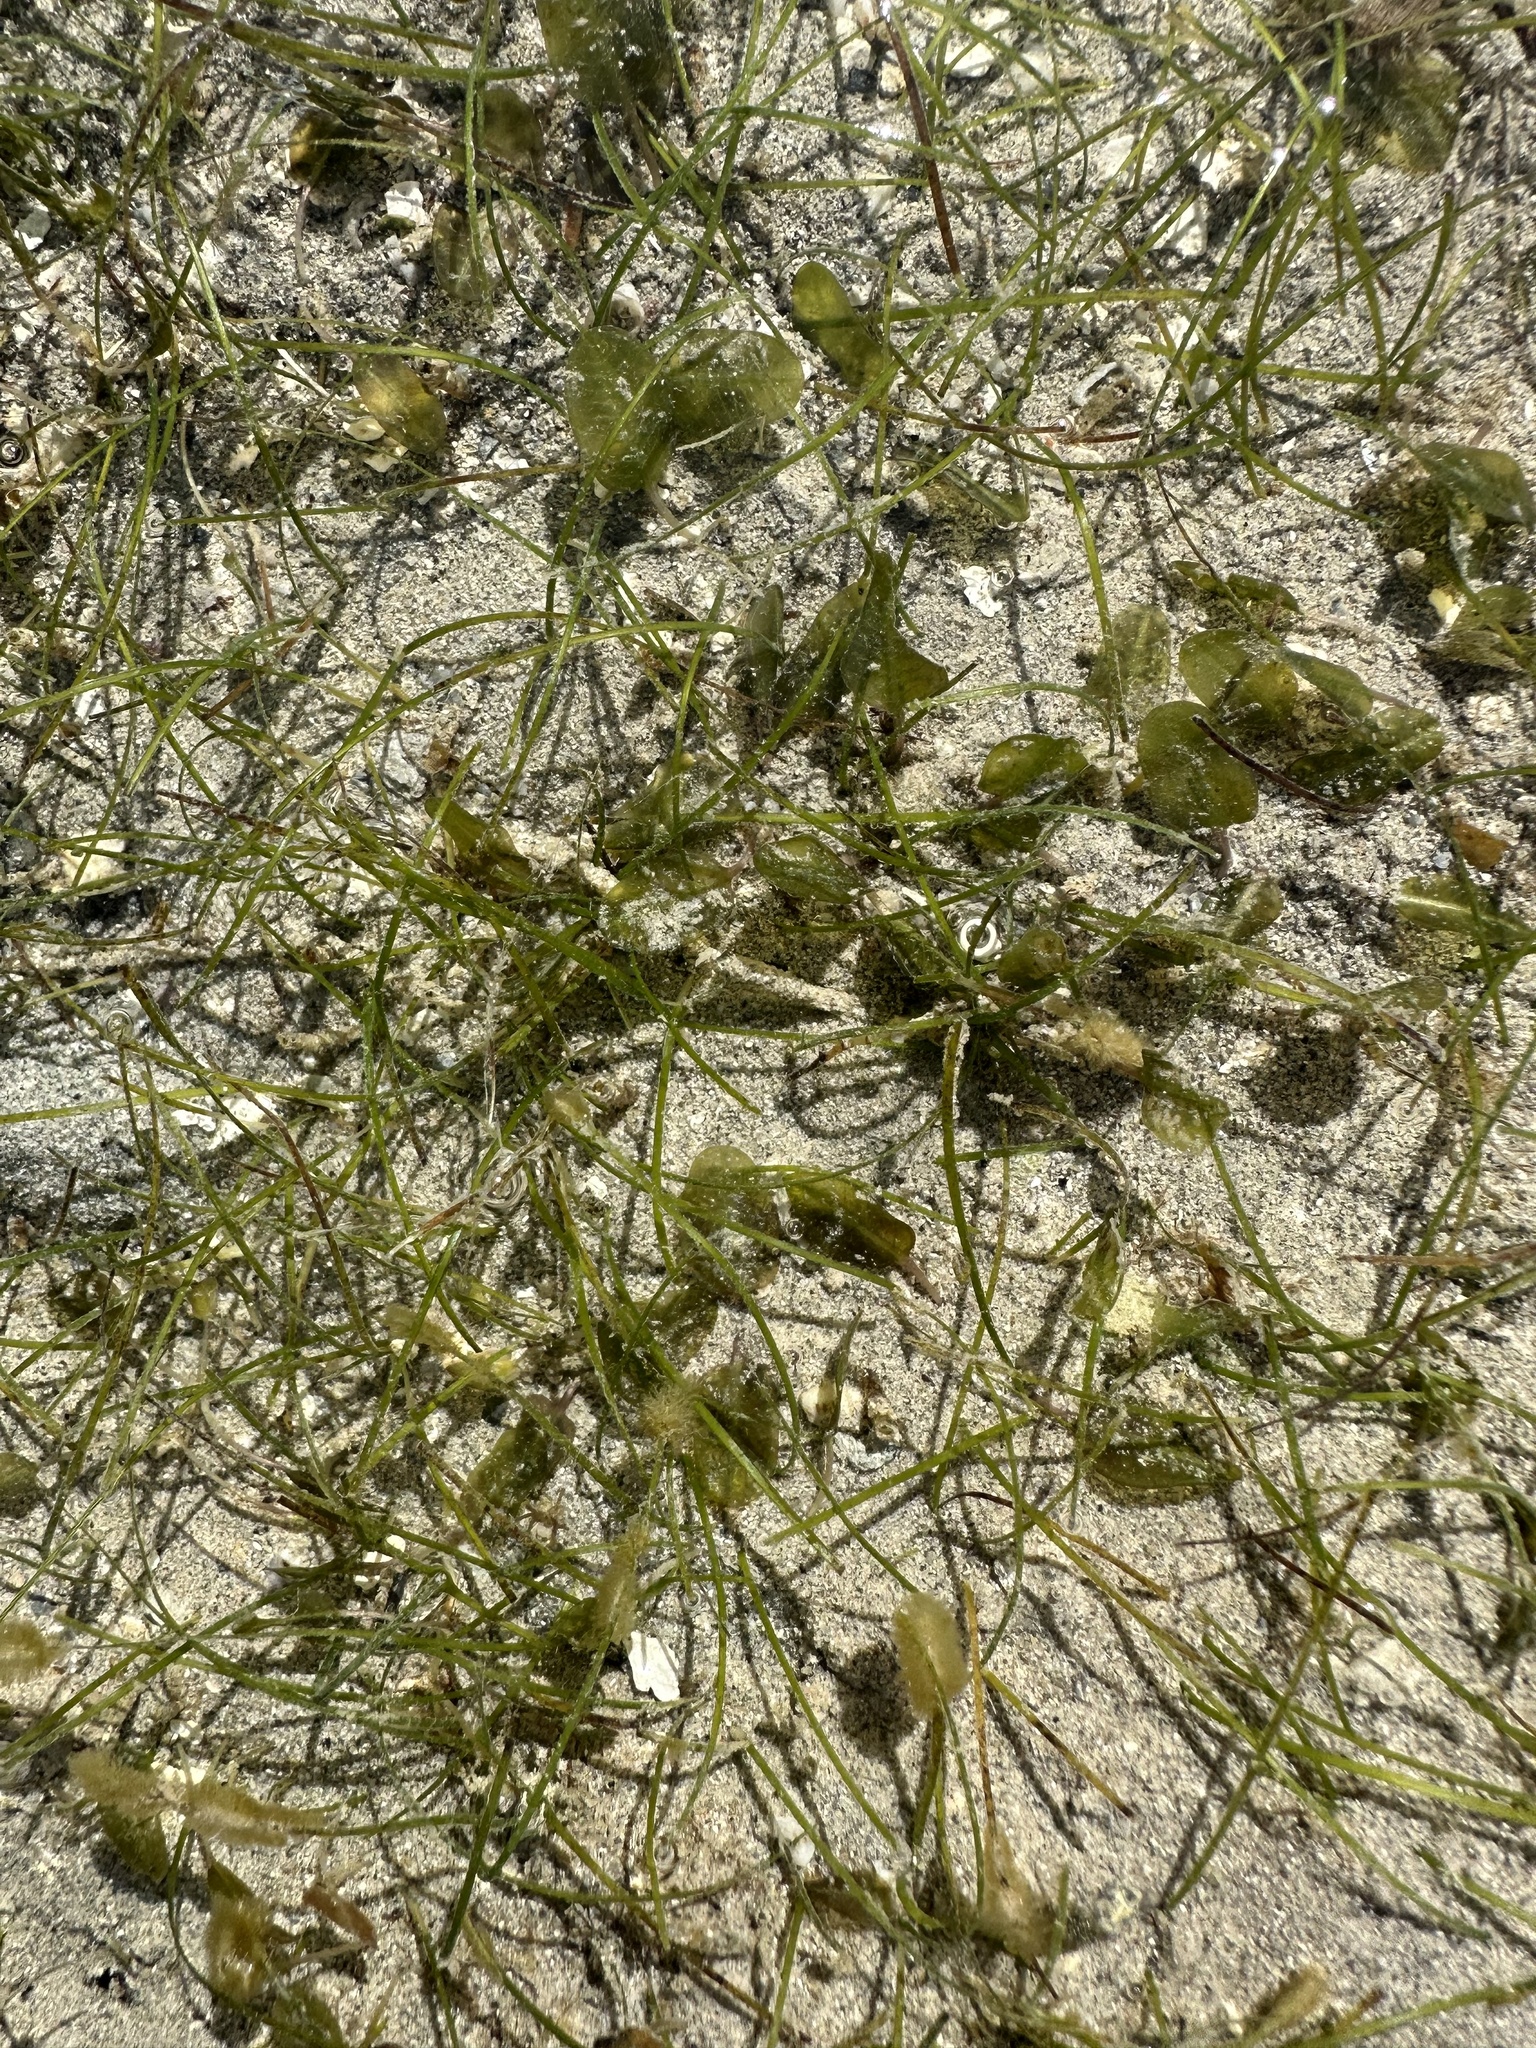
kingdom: Plantae
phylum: Tracheophyta
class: Liliopsida
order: Alismatales
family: Hydrocharitaceae
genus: Halophila
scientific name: Halophila ovalis
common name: Species code: ho
